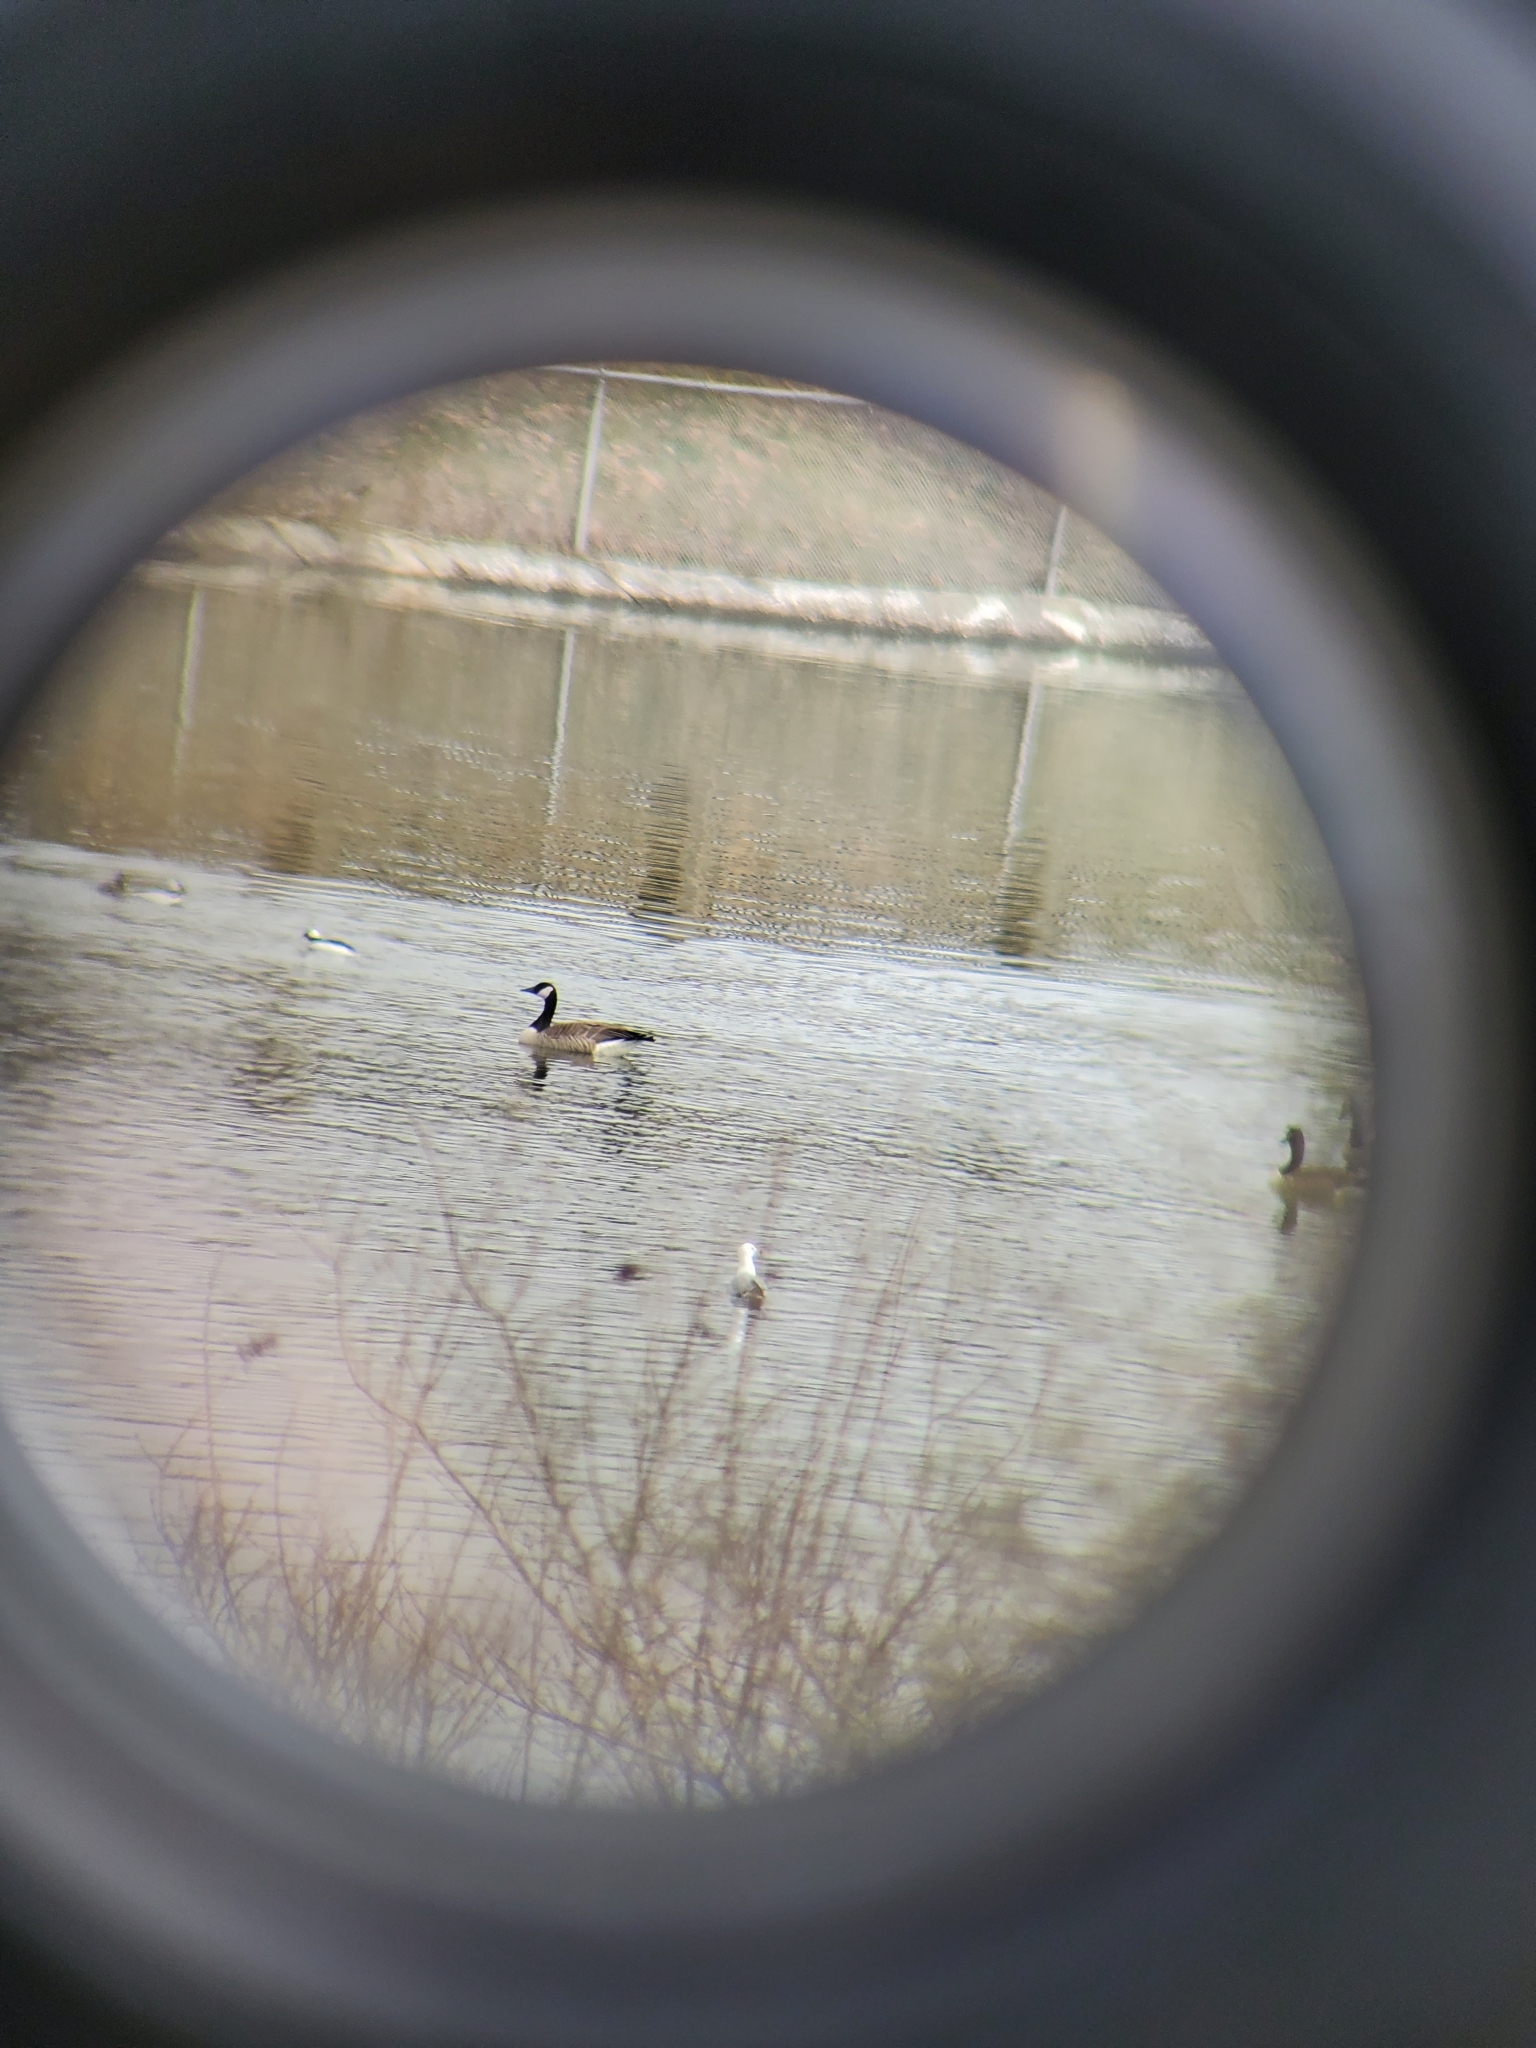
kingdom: Animalia
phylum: Chordata
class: Aves
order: Anseriformes
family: Anatidae
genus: Bucephala
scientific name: Bucephala albeola
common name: Bufflehead
